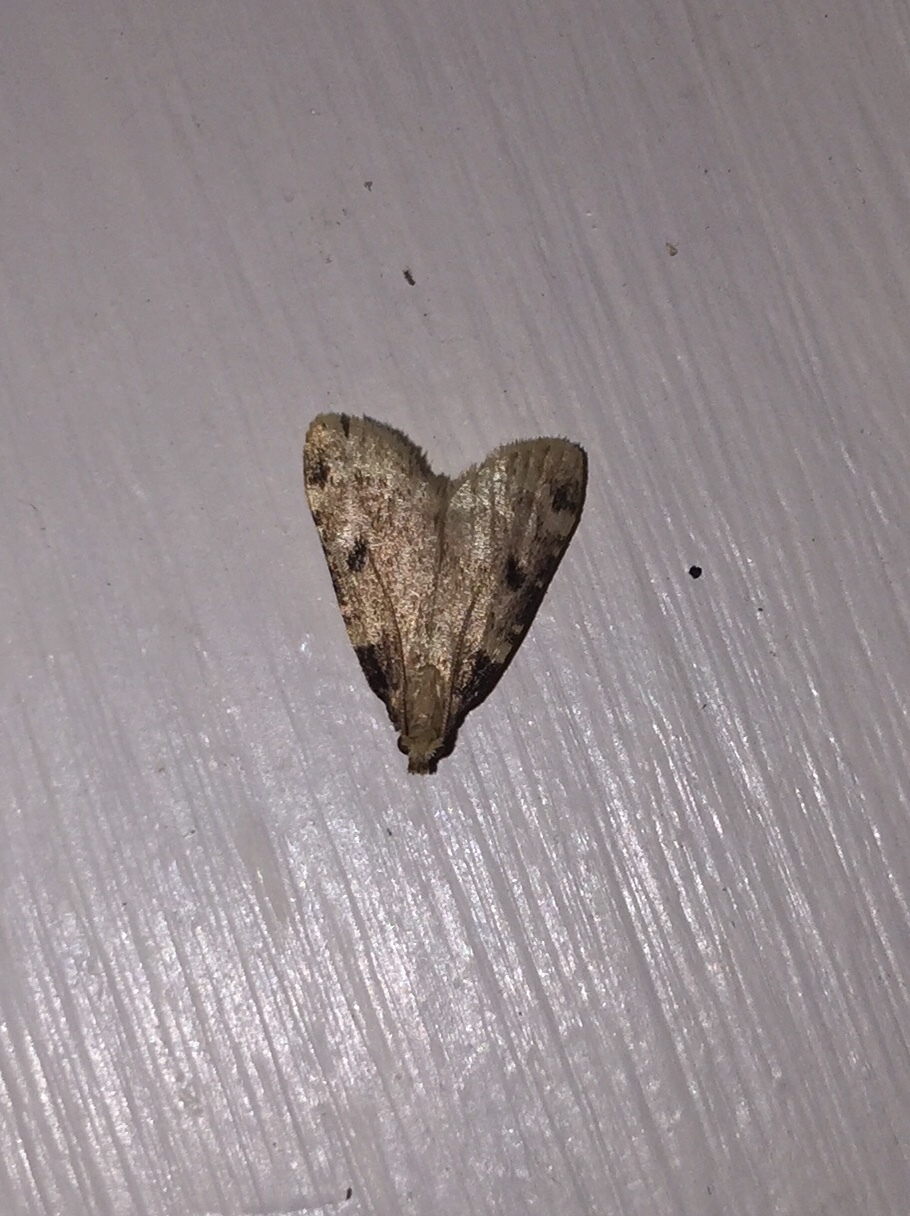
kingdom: Animalia
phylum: Arthropoda
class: Insecta
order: Lepidoptera
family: Pyralidae
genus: Aglossa
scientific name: Aglossa costiferalis
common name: Calico pyralid moth
